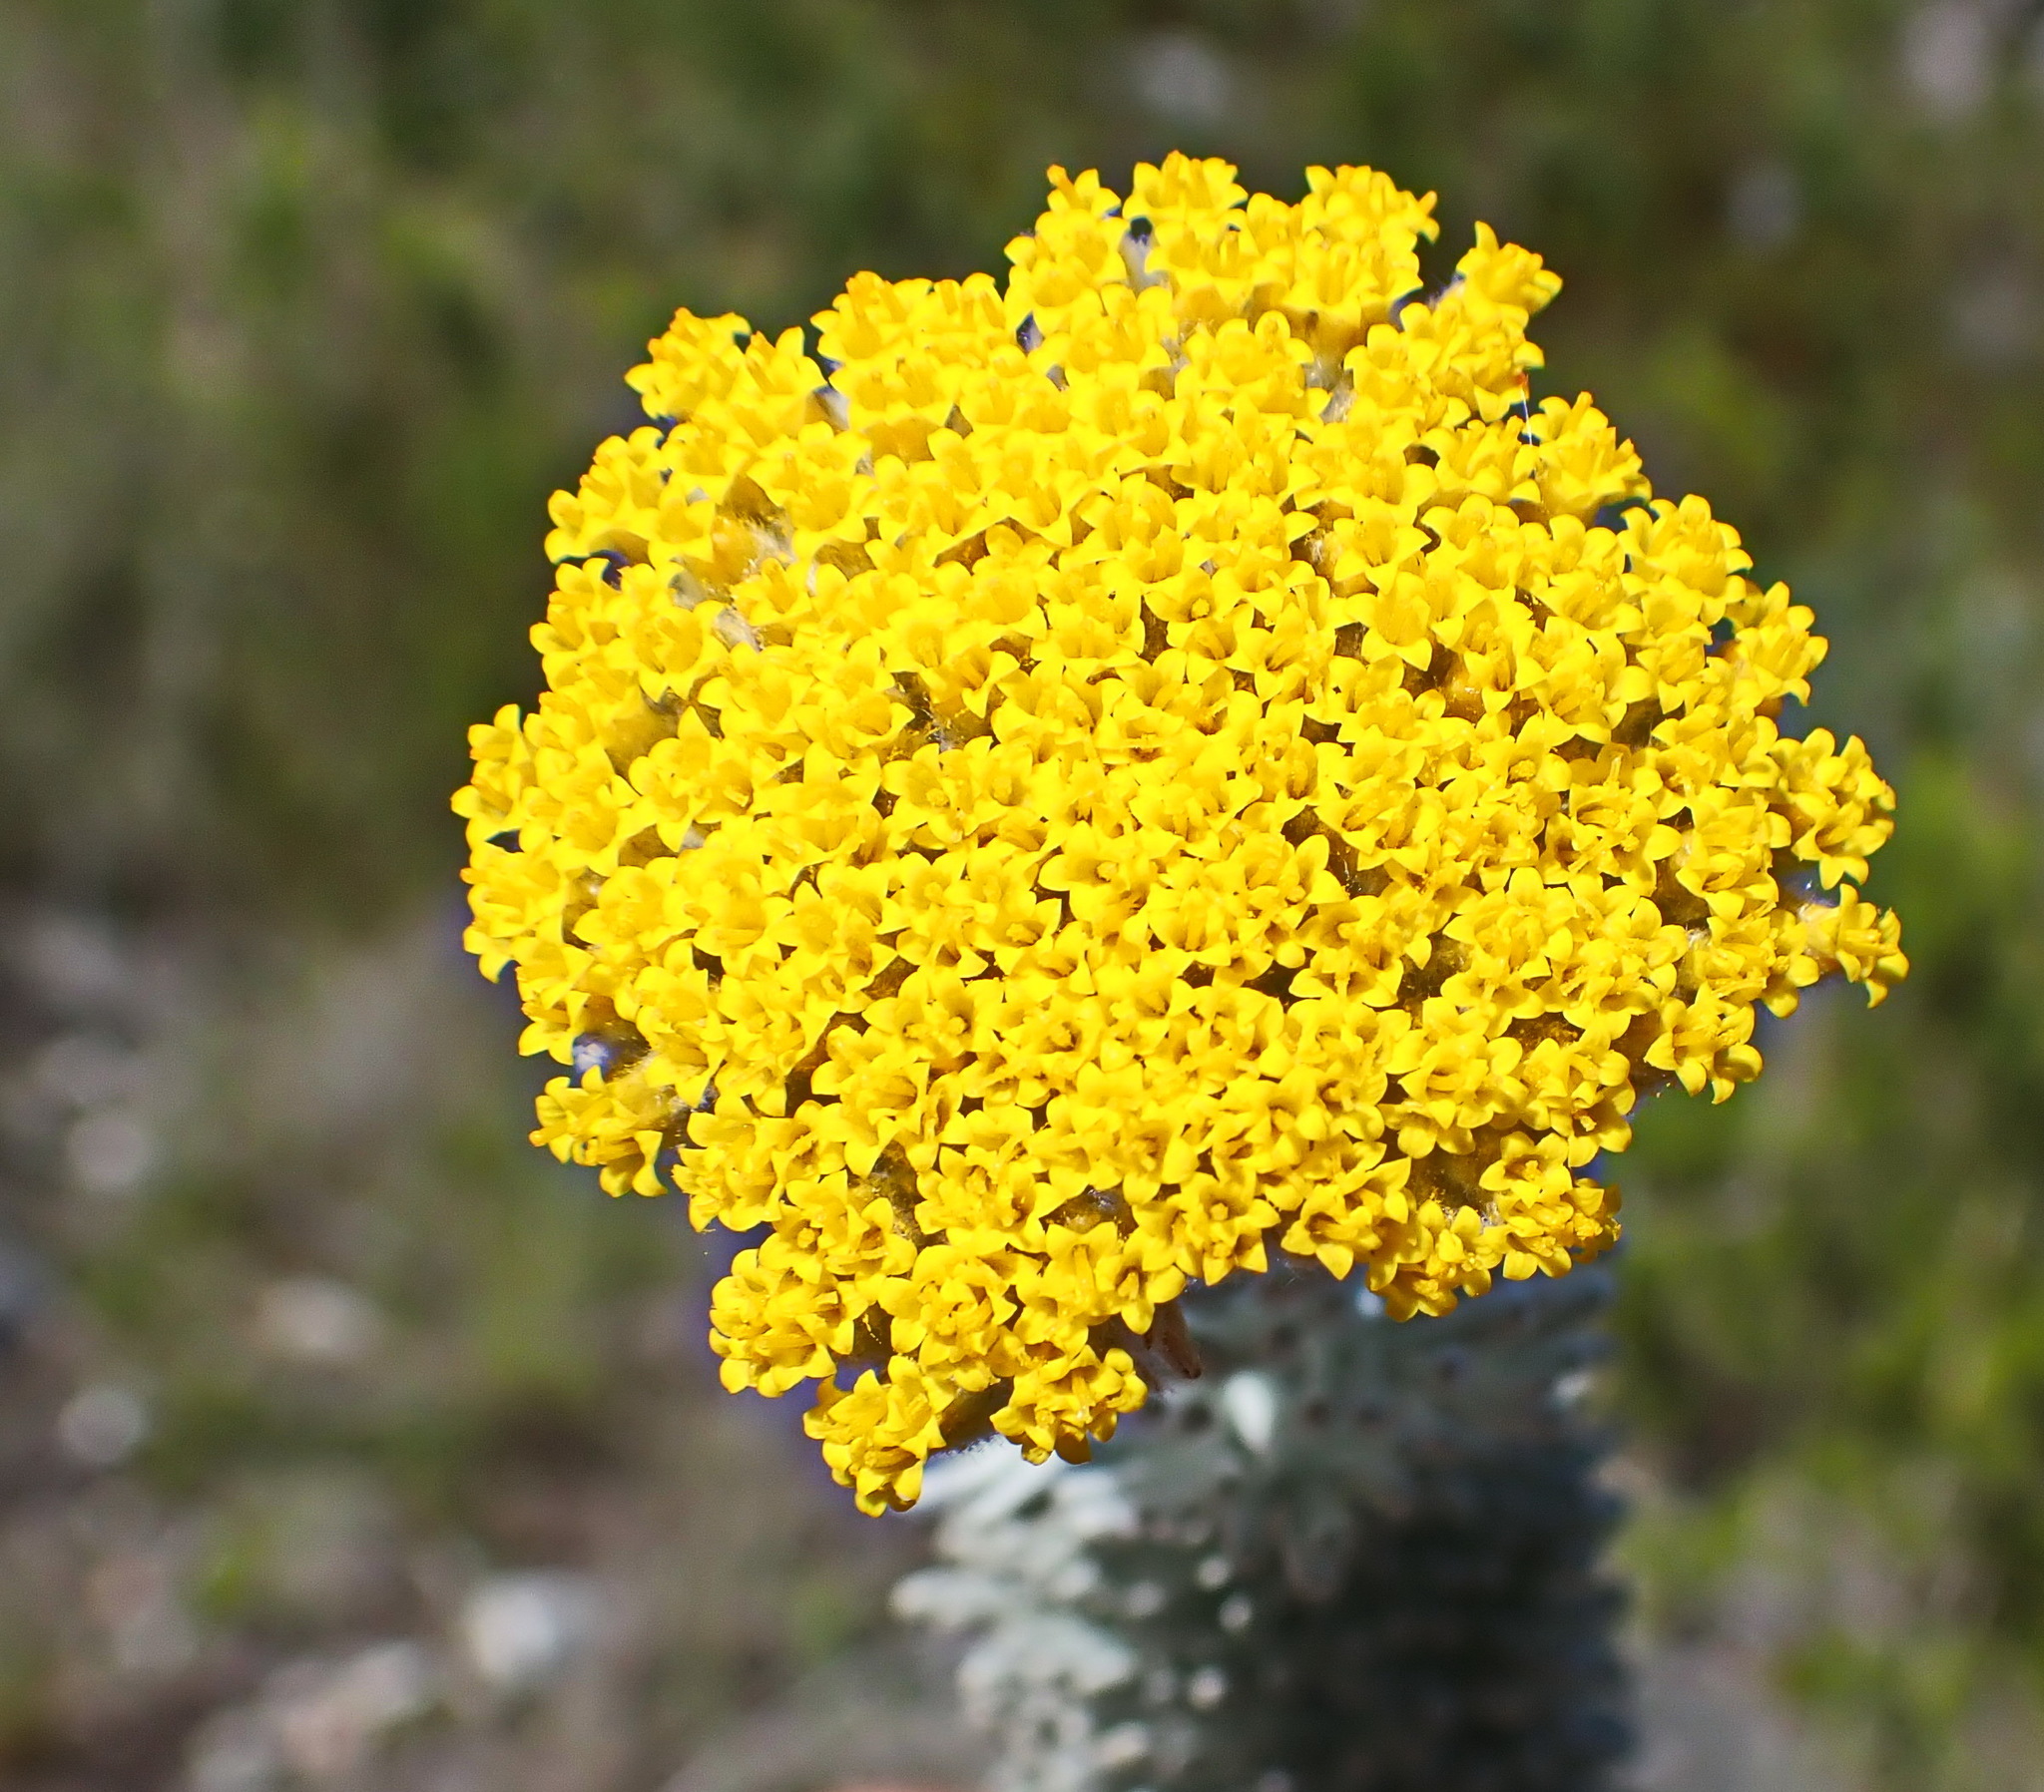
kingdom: Plantae
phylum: Tracheophyta
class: Magnoliopsida
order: Asterales
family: Asteraceae
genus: Athanasia
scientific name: Athanasia pinnata
